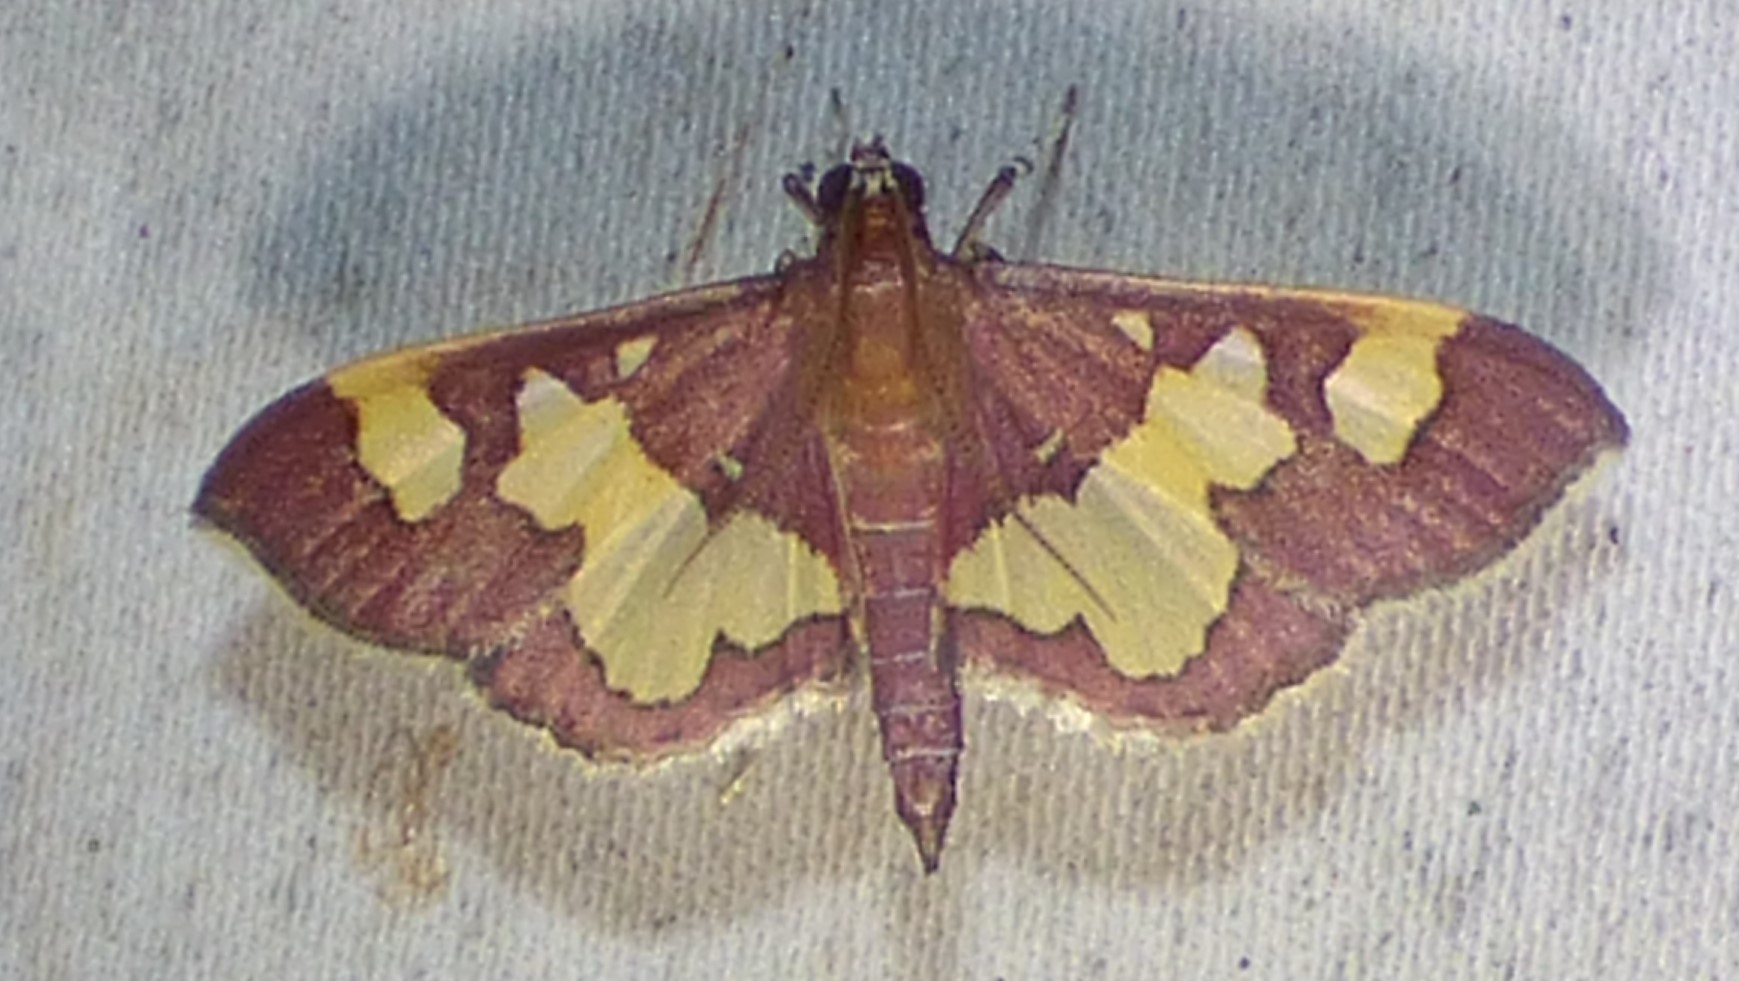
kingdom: Animalia
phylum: Arthropoda
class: Insecta
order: Lepidoptera
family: Crambidae
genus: Colomychus
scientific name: Colomychus talis
